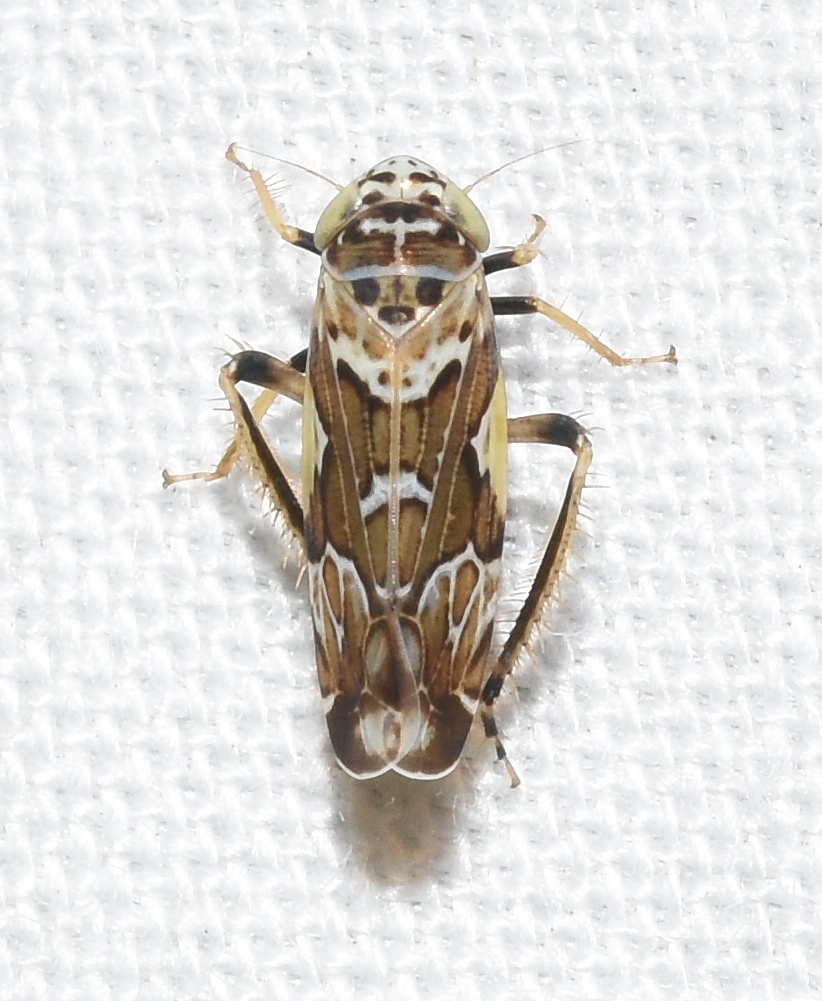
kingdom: Animalia
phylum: Arthropoda
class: Insecta
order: Hemiptera
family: Cicadellidae
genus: Sanctanus
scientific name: Sanctanus cruciatus
